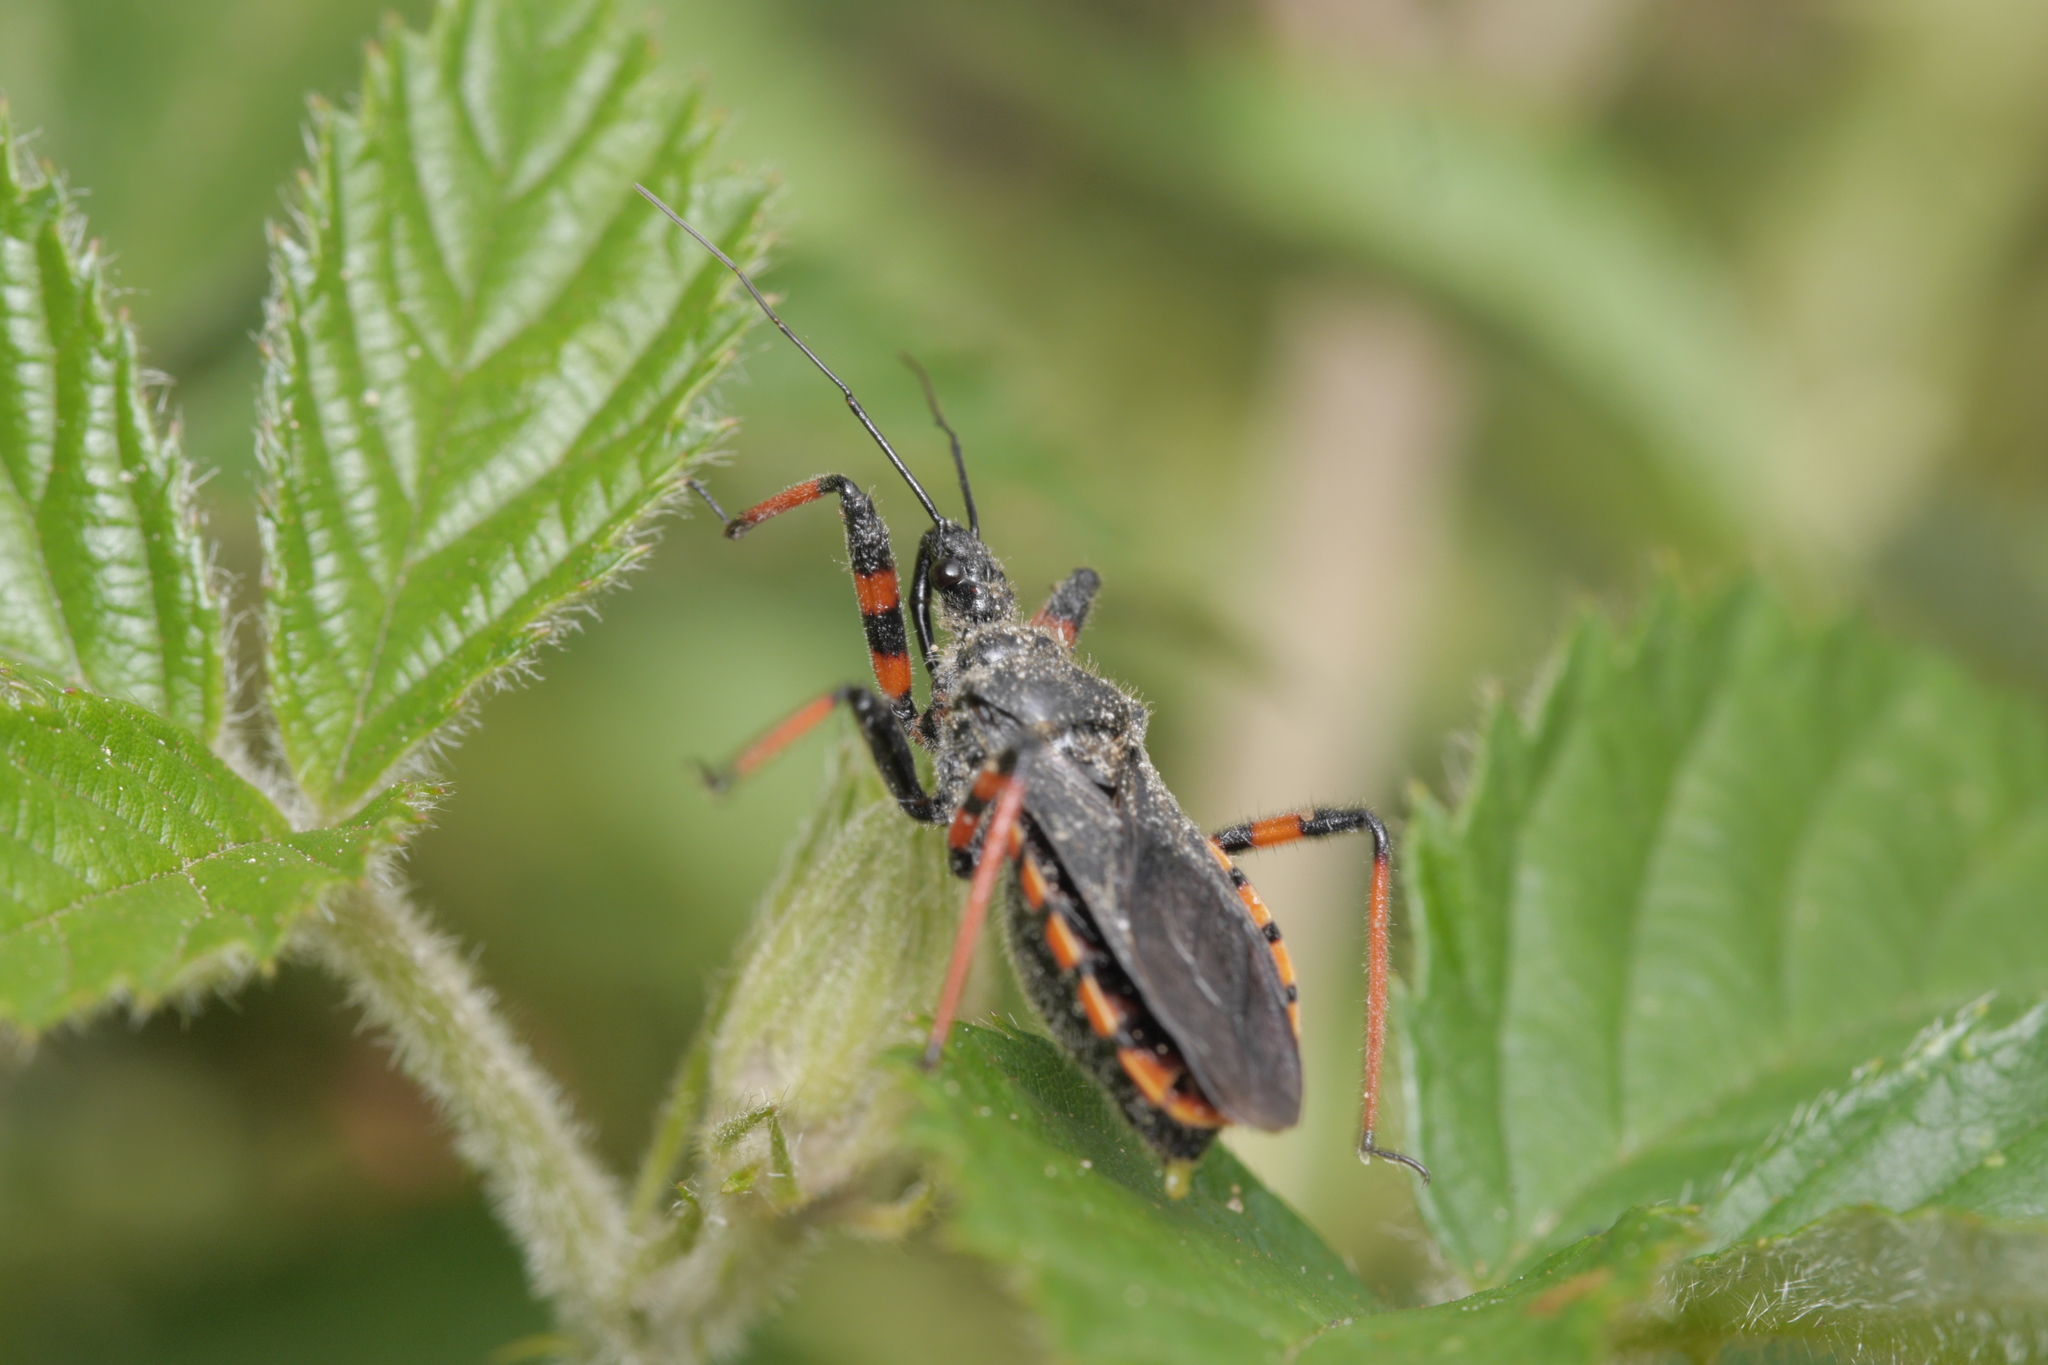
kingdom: Animalia
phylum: Arthropoda
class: Insecta
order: Hemiptera
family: Reduviidae
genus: Rhynocoris
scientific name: Rhynocoris annulatus
